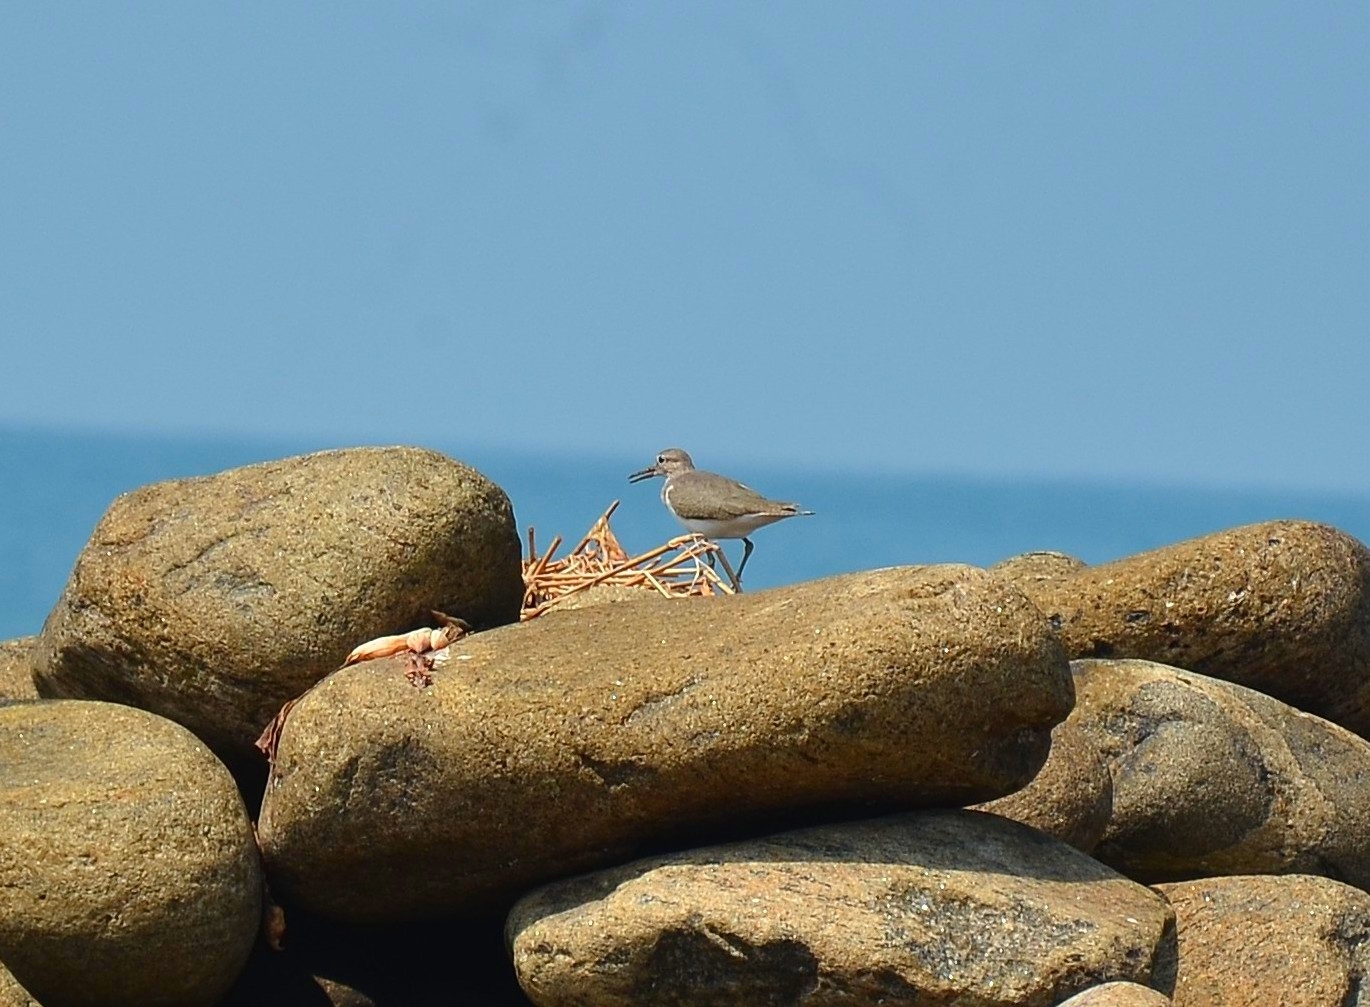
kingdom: Animalia
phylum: Chordata
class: Aves
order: Charadriiformes
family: Scolopacidae
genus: Actitis
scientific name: Actitis hypoleucos
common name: Common sandpiper
